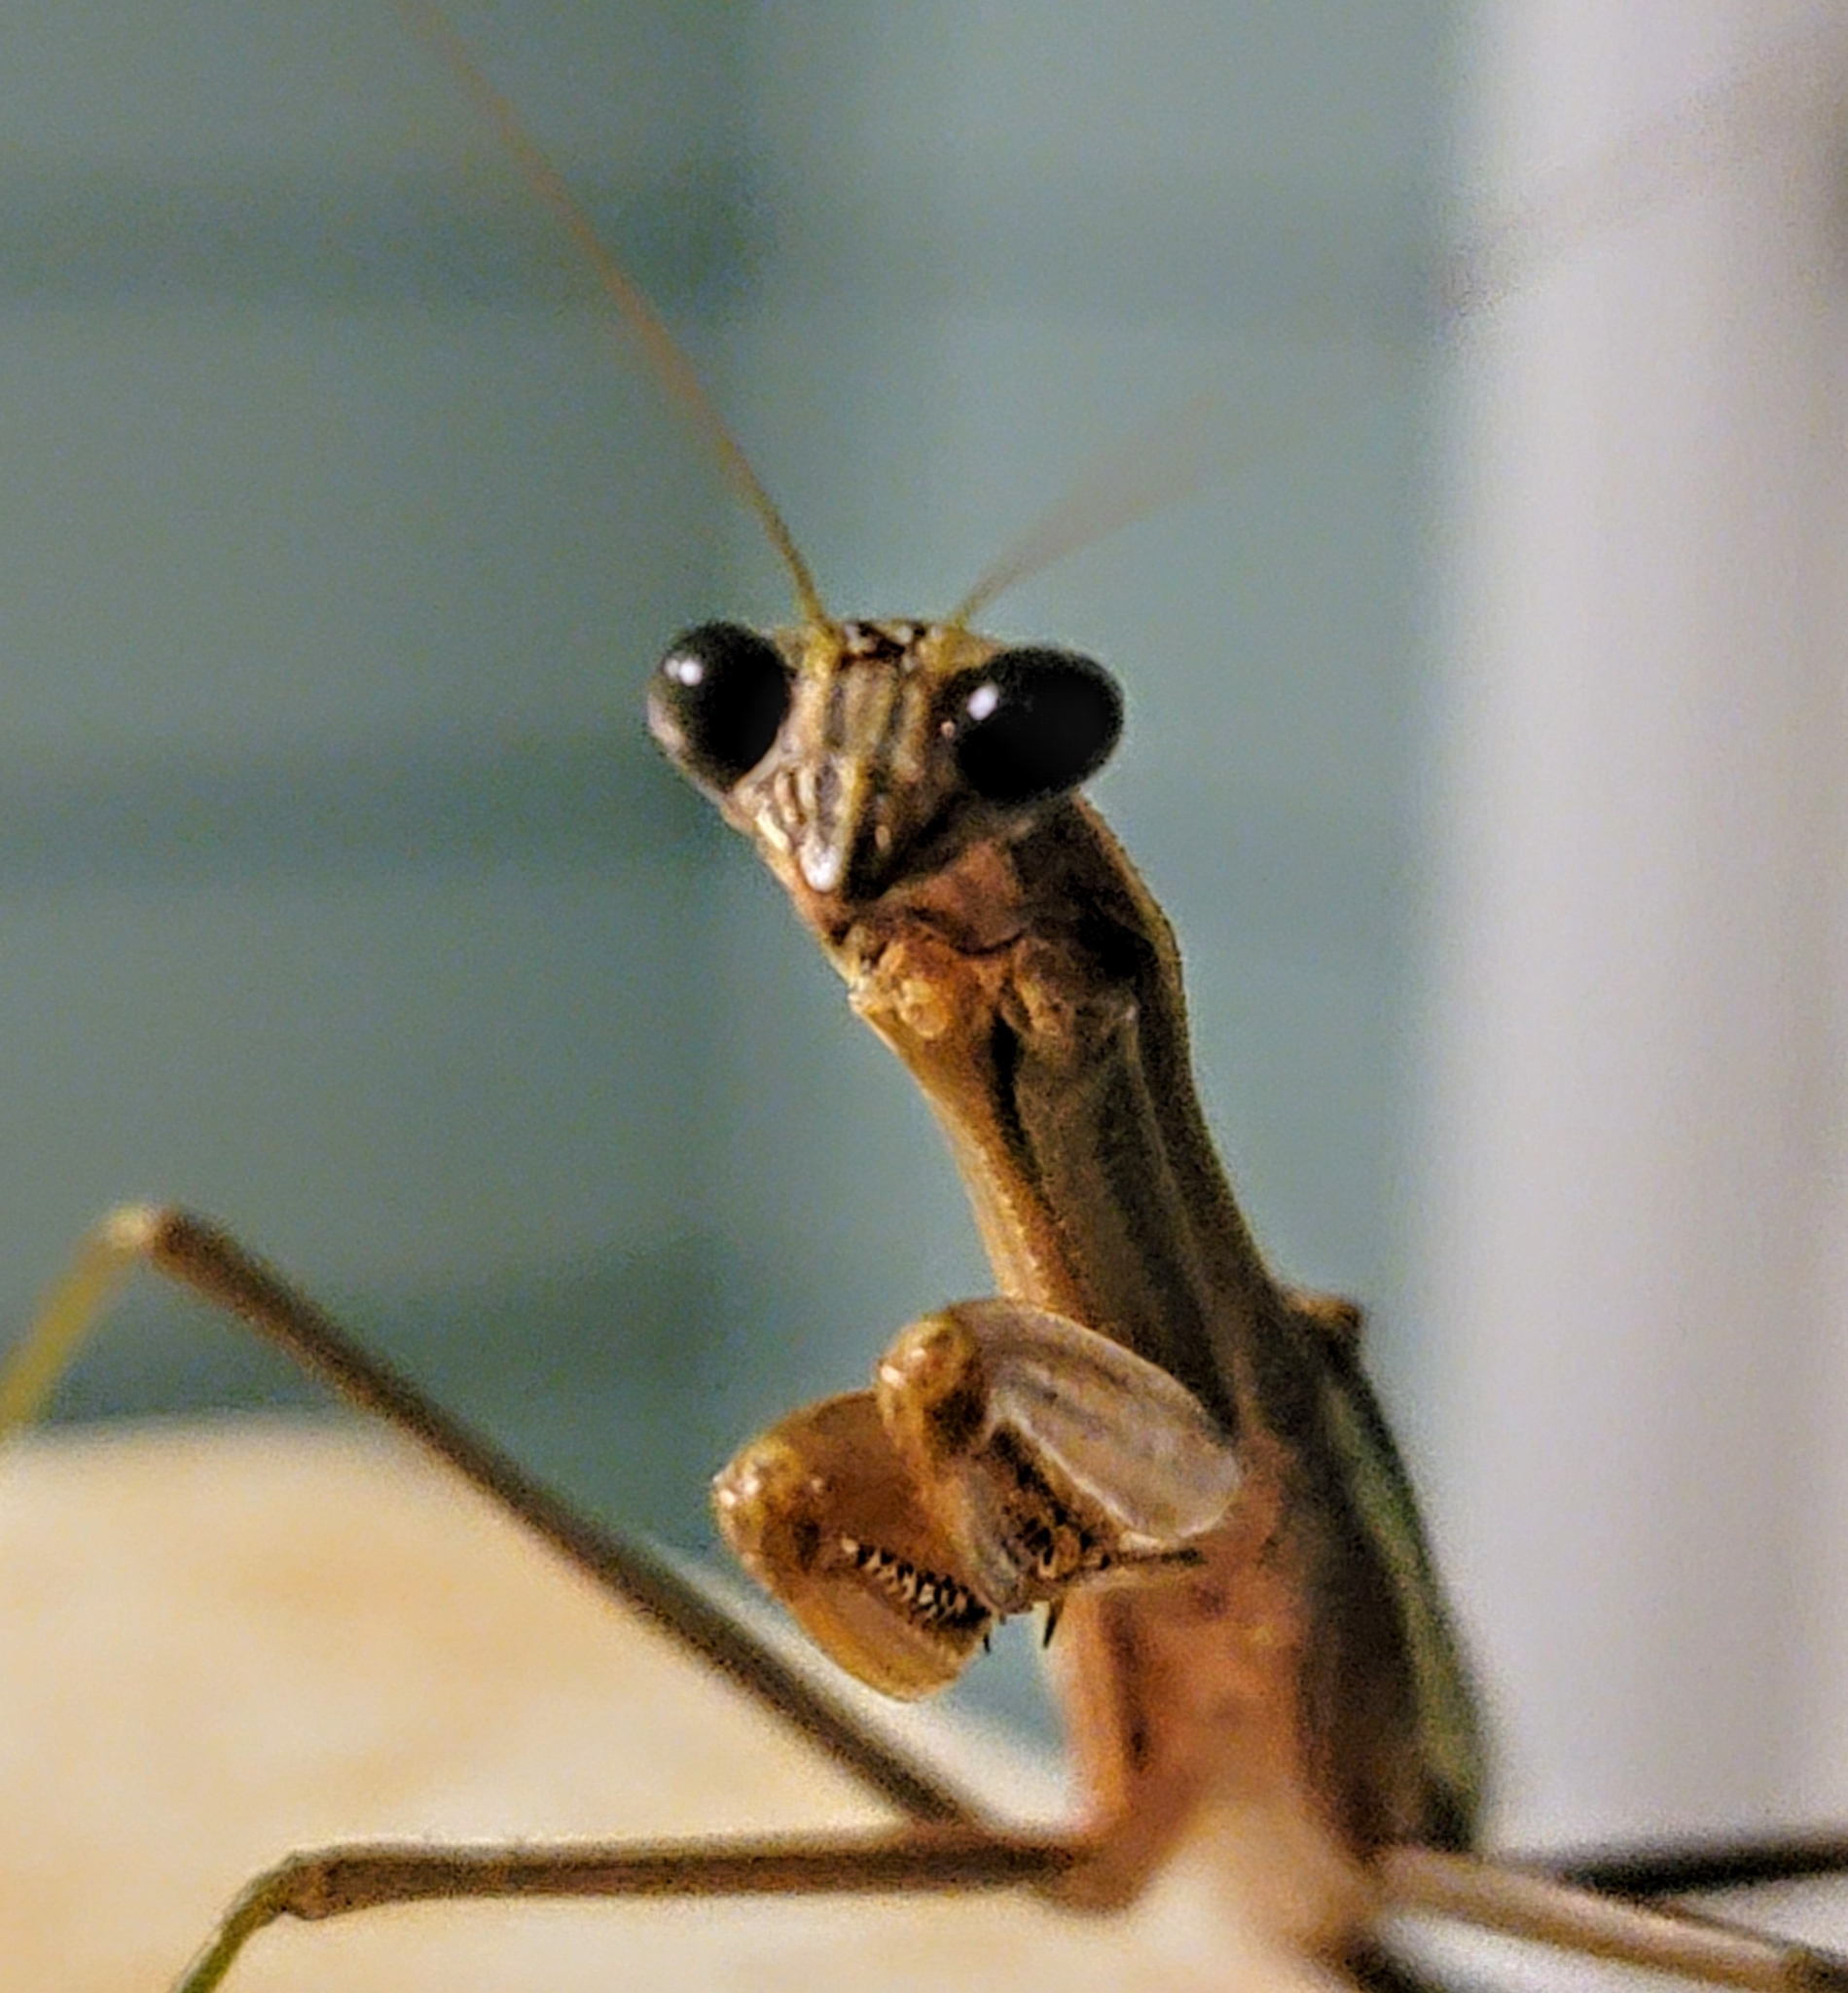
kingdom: Animalia
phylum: Arthropoda
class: Insecta
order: Mantodea
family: Mantidae
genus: Tenodera
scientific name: Tenodera sinensis
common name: Chinese mantis
